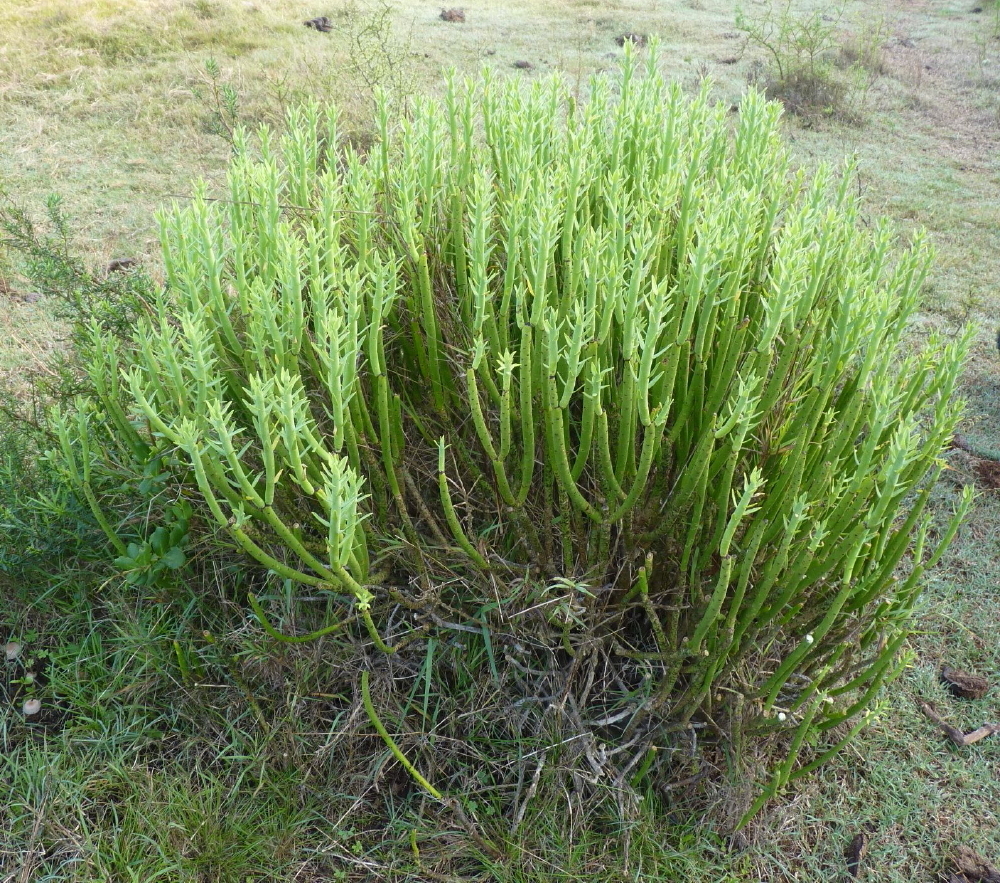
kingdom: Plantae
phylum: Tracheophyta
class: Magnoliopsida
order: Malpighiales
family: Euphorbiaceae
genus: Euphorbia
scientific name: Euphorbia mauritanica
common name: Jackal's-food
